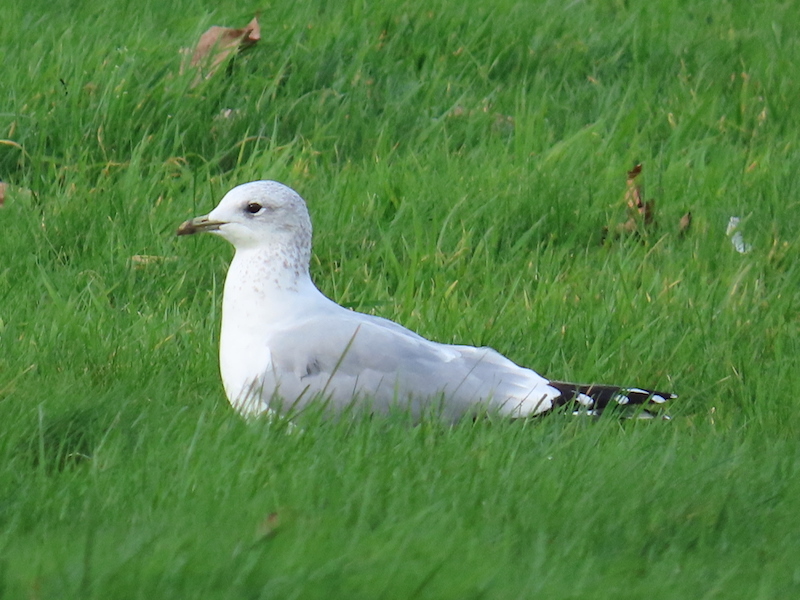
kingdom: Animalia
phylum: Chordata
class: Aves
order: Charadriiformes
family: Laridae
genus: Larus
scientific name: Larus canus
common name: Mew gull
